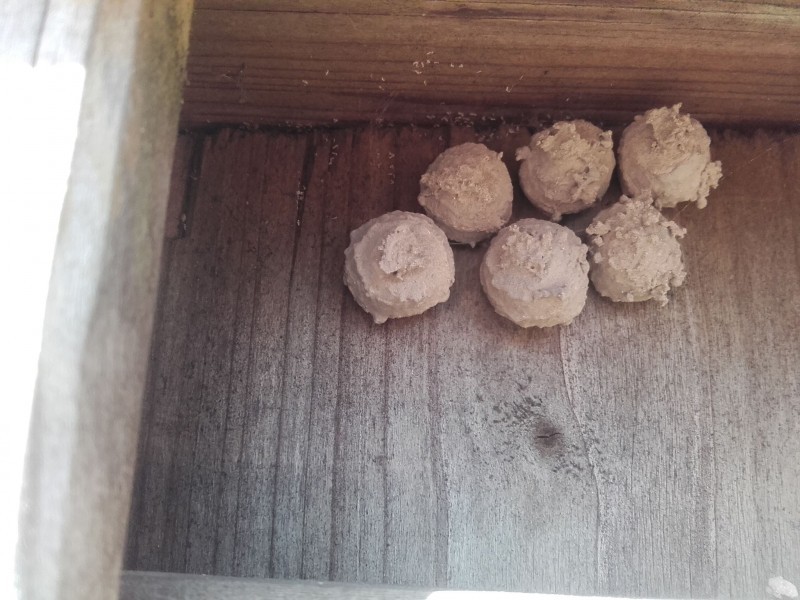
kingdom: Animalia
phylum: Arthropoda
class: Insecta
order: Hymenoptera
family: Vespidae
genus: Eumenes
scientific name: Eumenes
